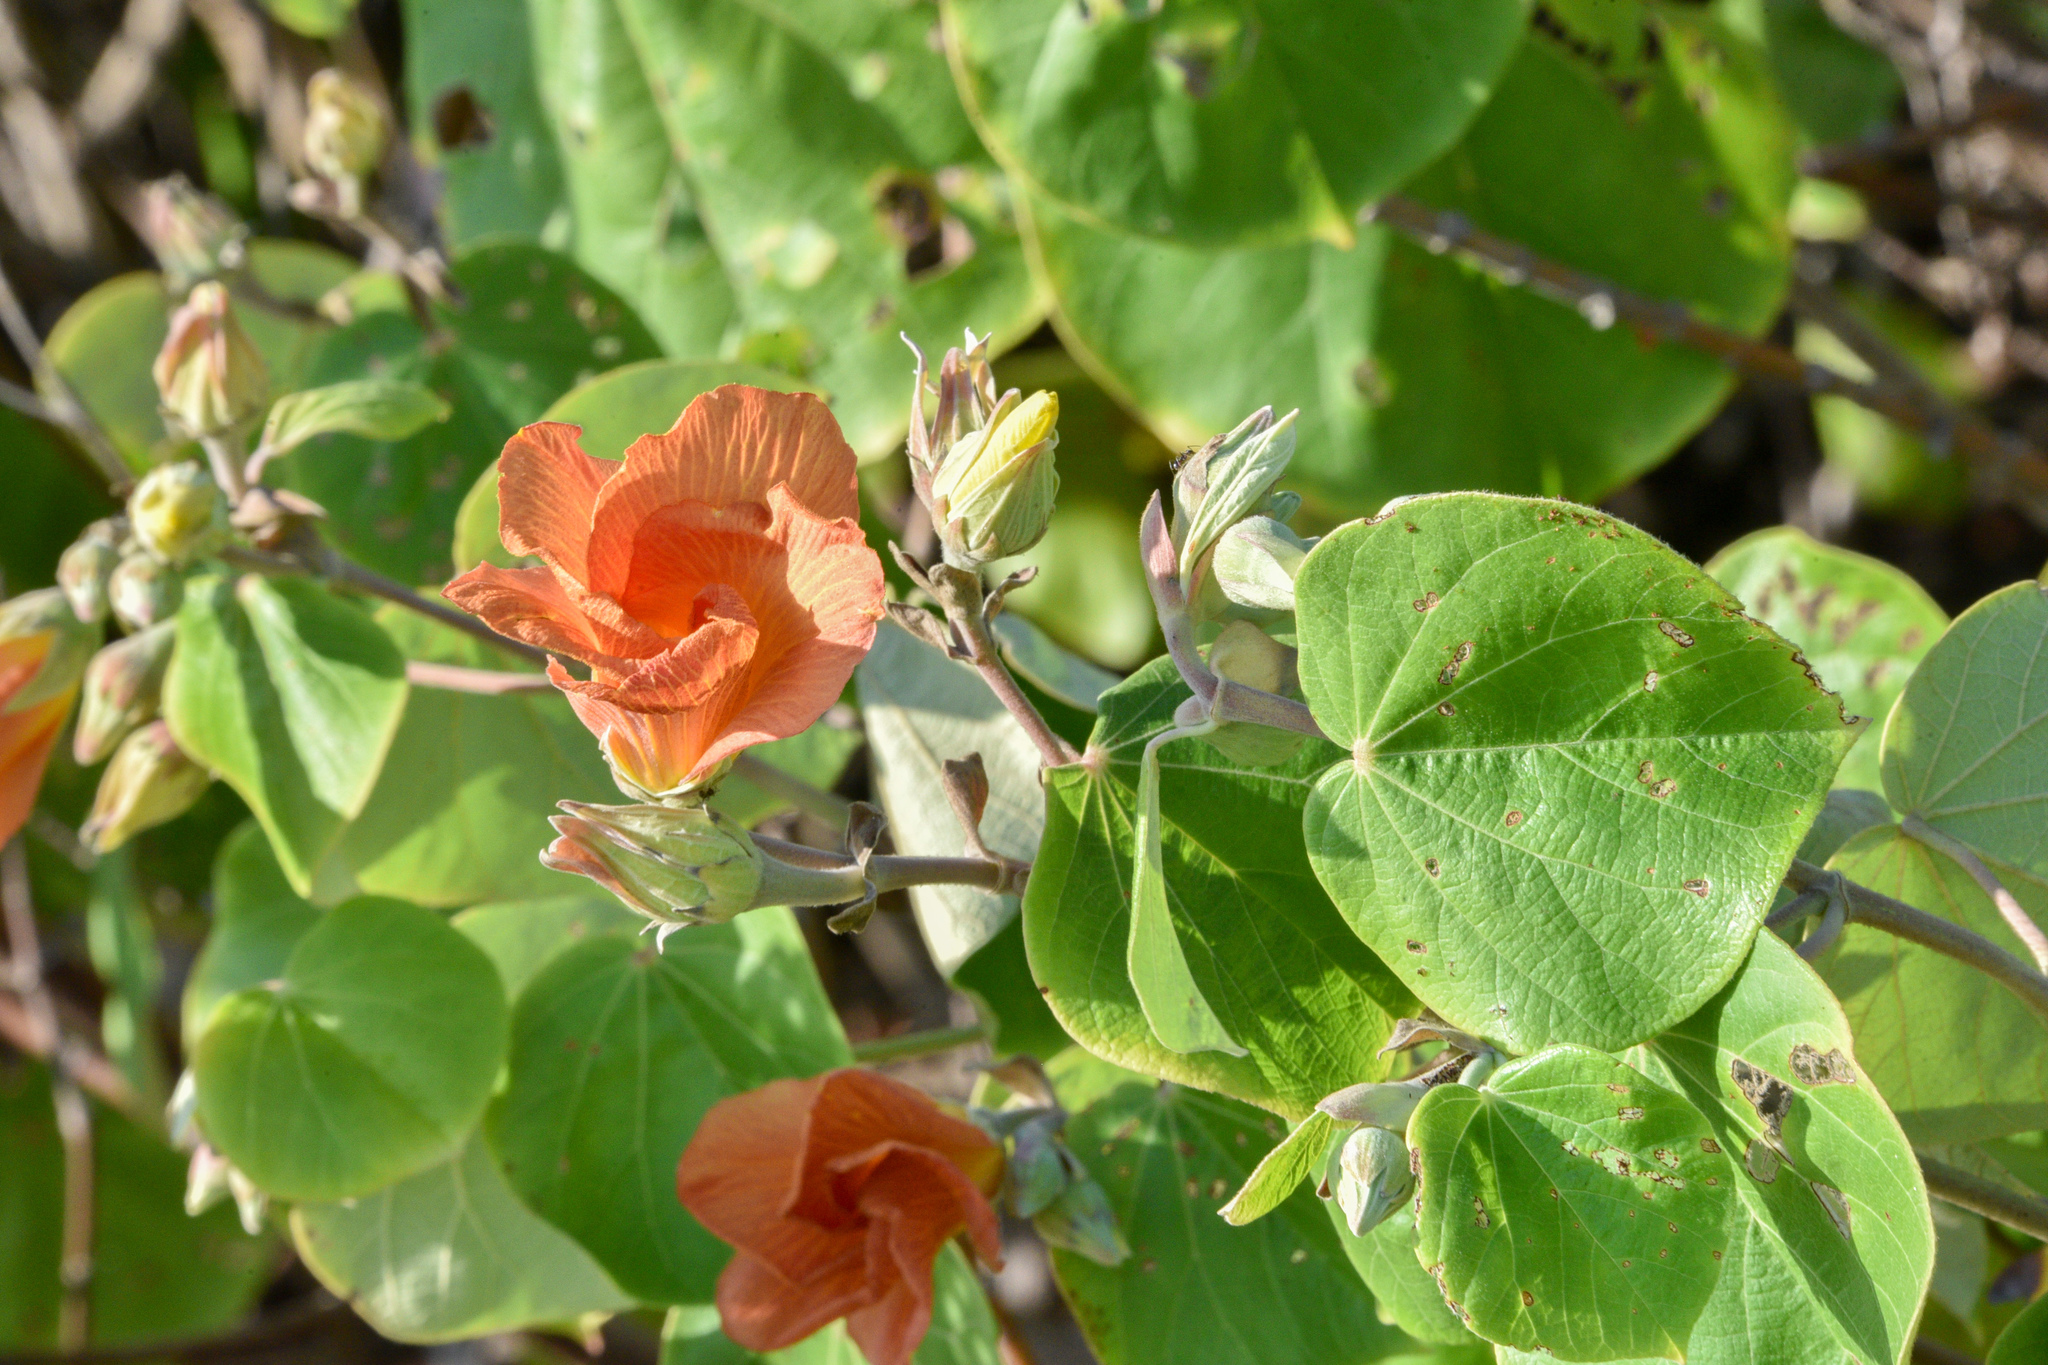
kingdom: Plantae
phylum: Tracheophyta
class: Magnoliopsida
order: Malvales
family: Malvaceae
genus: Talipariti
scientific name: Talipariti tiliaceum
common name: Sea hibiscus
